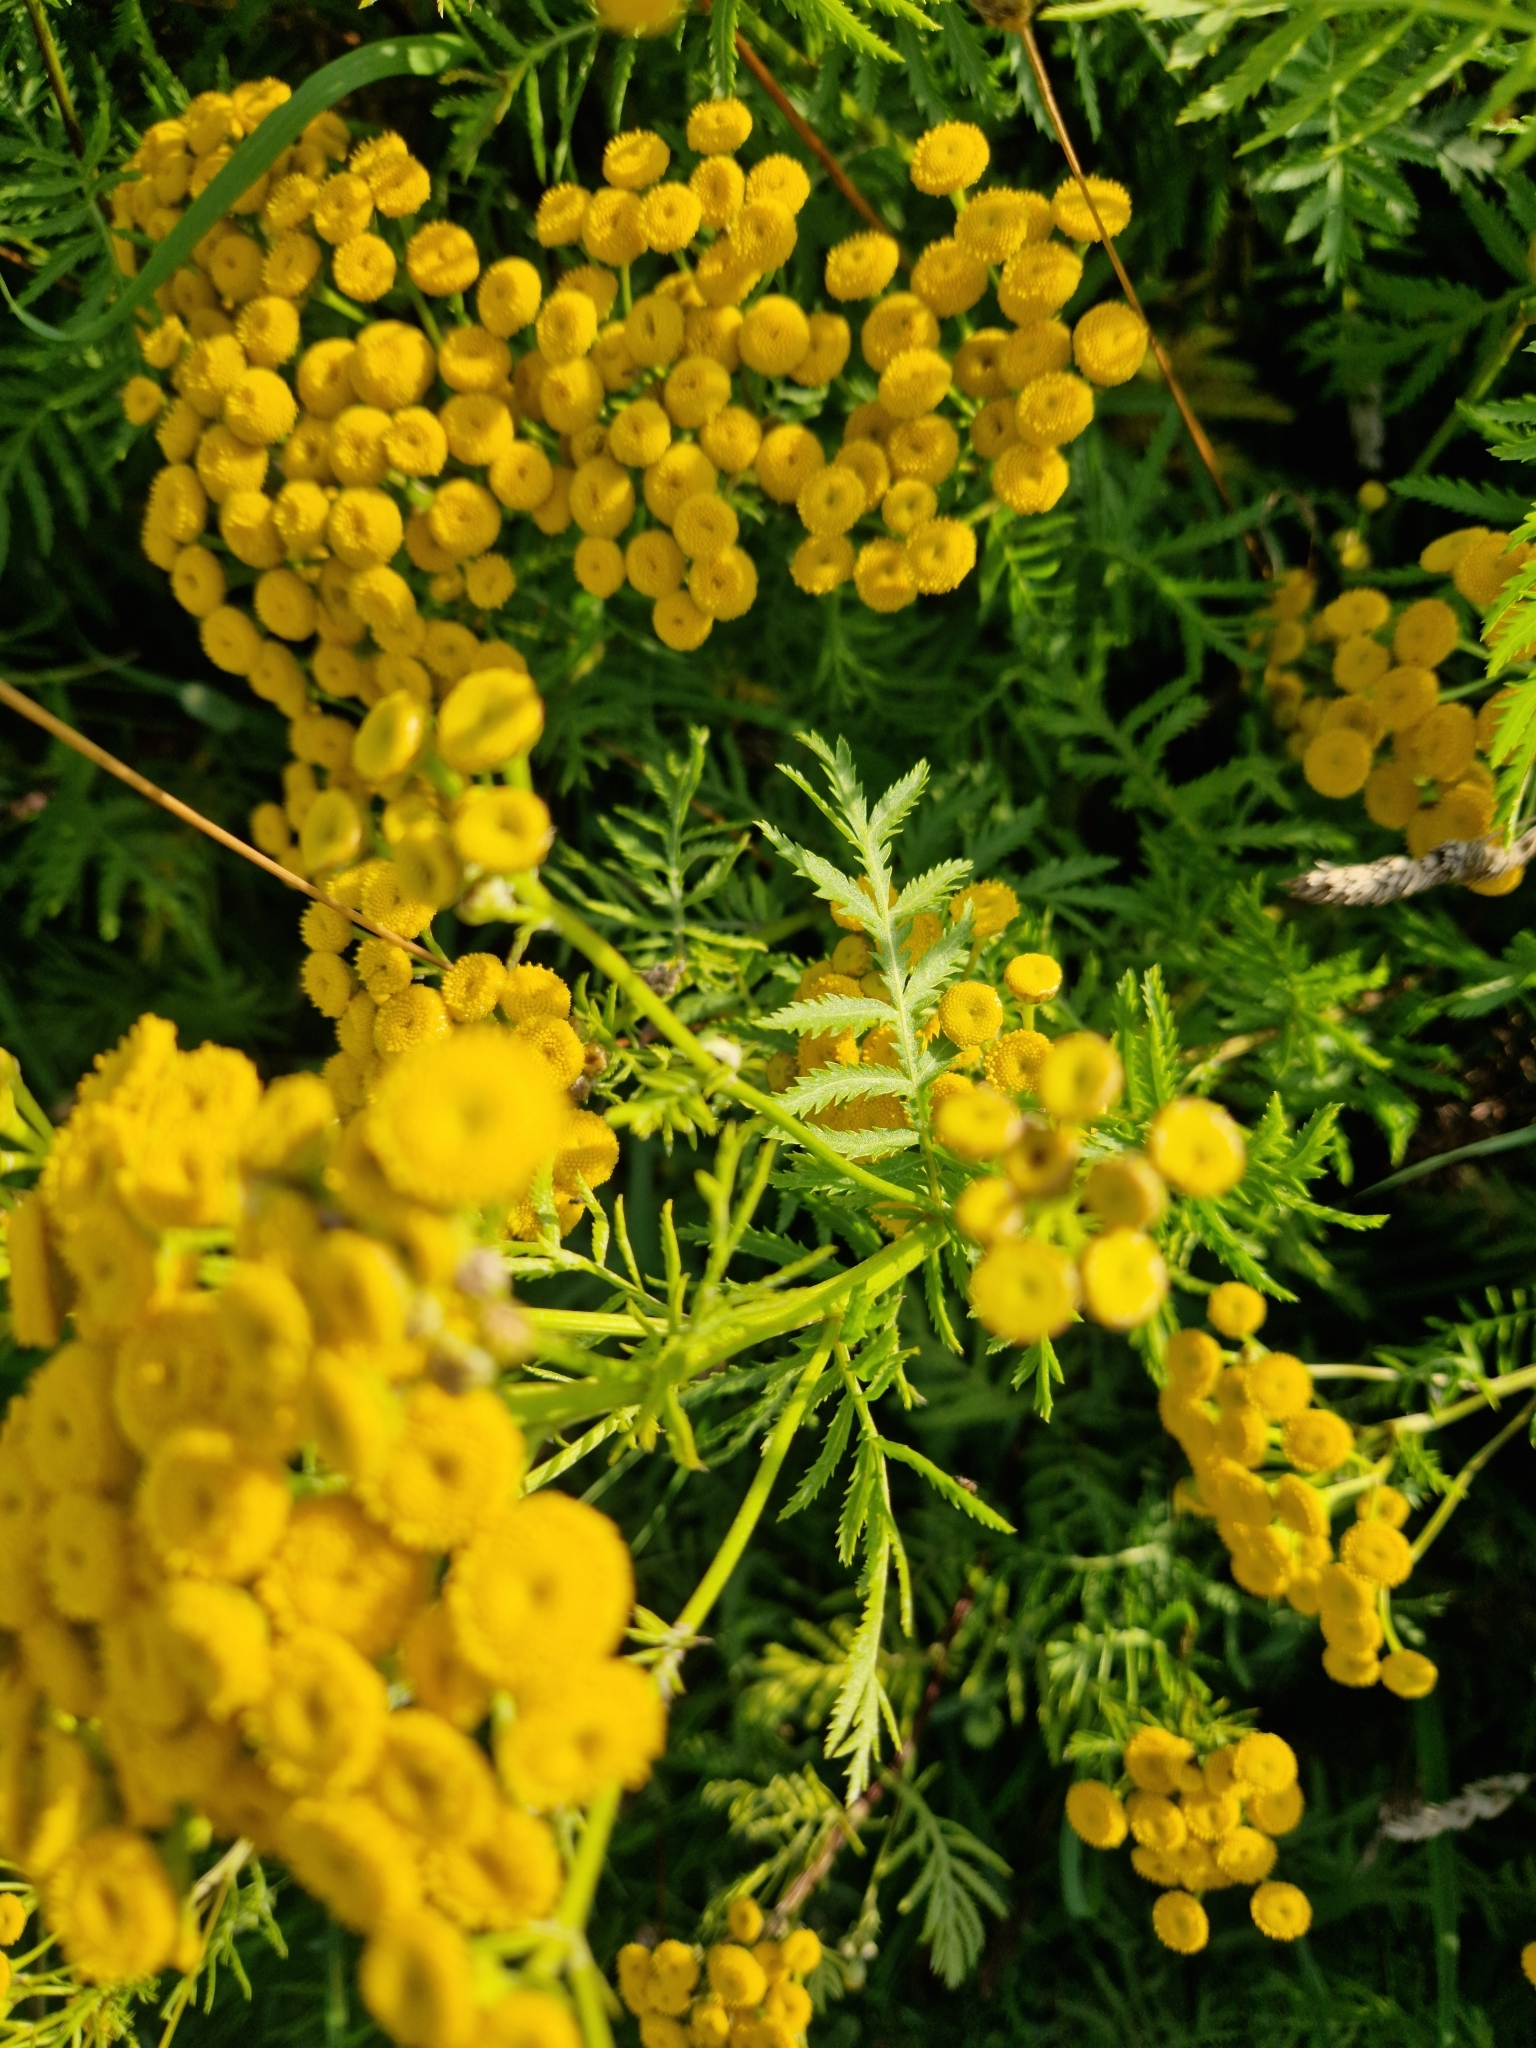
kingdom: Plantae
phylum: Tracheophyta
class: Magnoliopsida
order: Asterales
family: Asteraceae
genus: Tanacetum
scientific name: Tanacetum vulgare
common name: Common tansy
